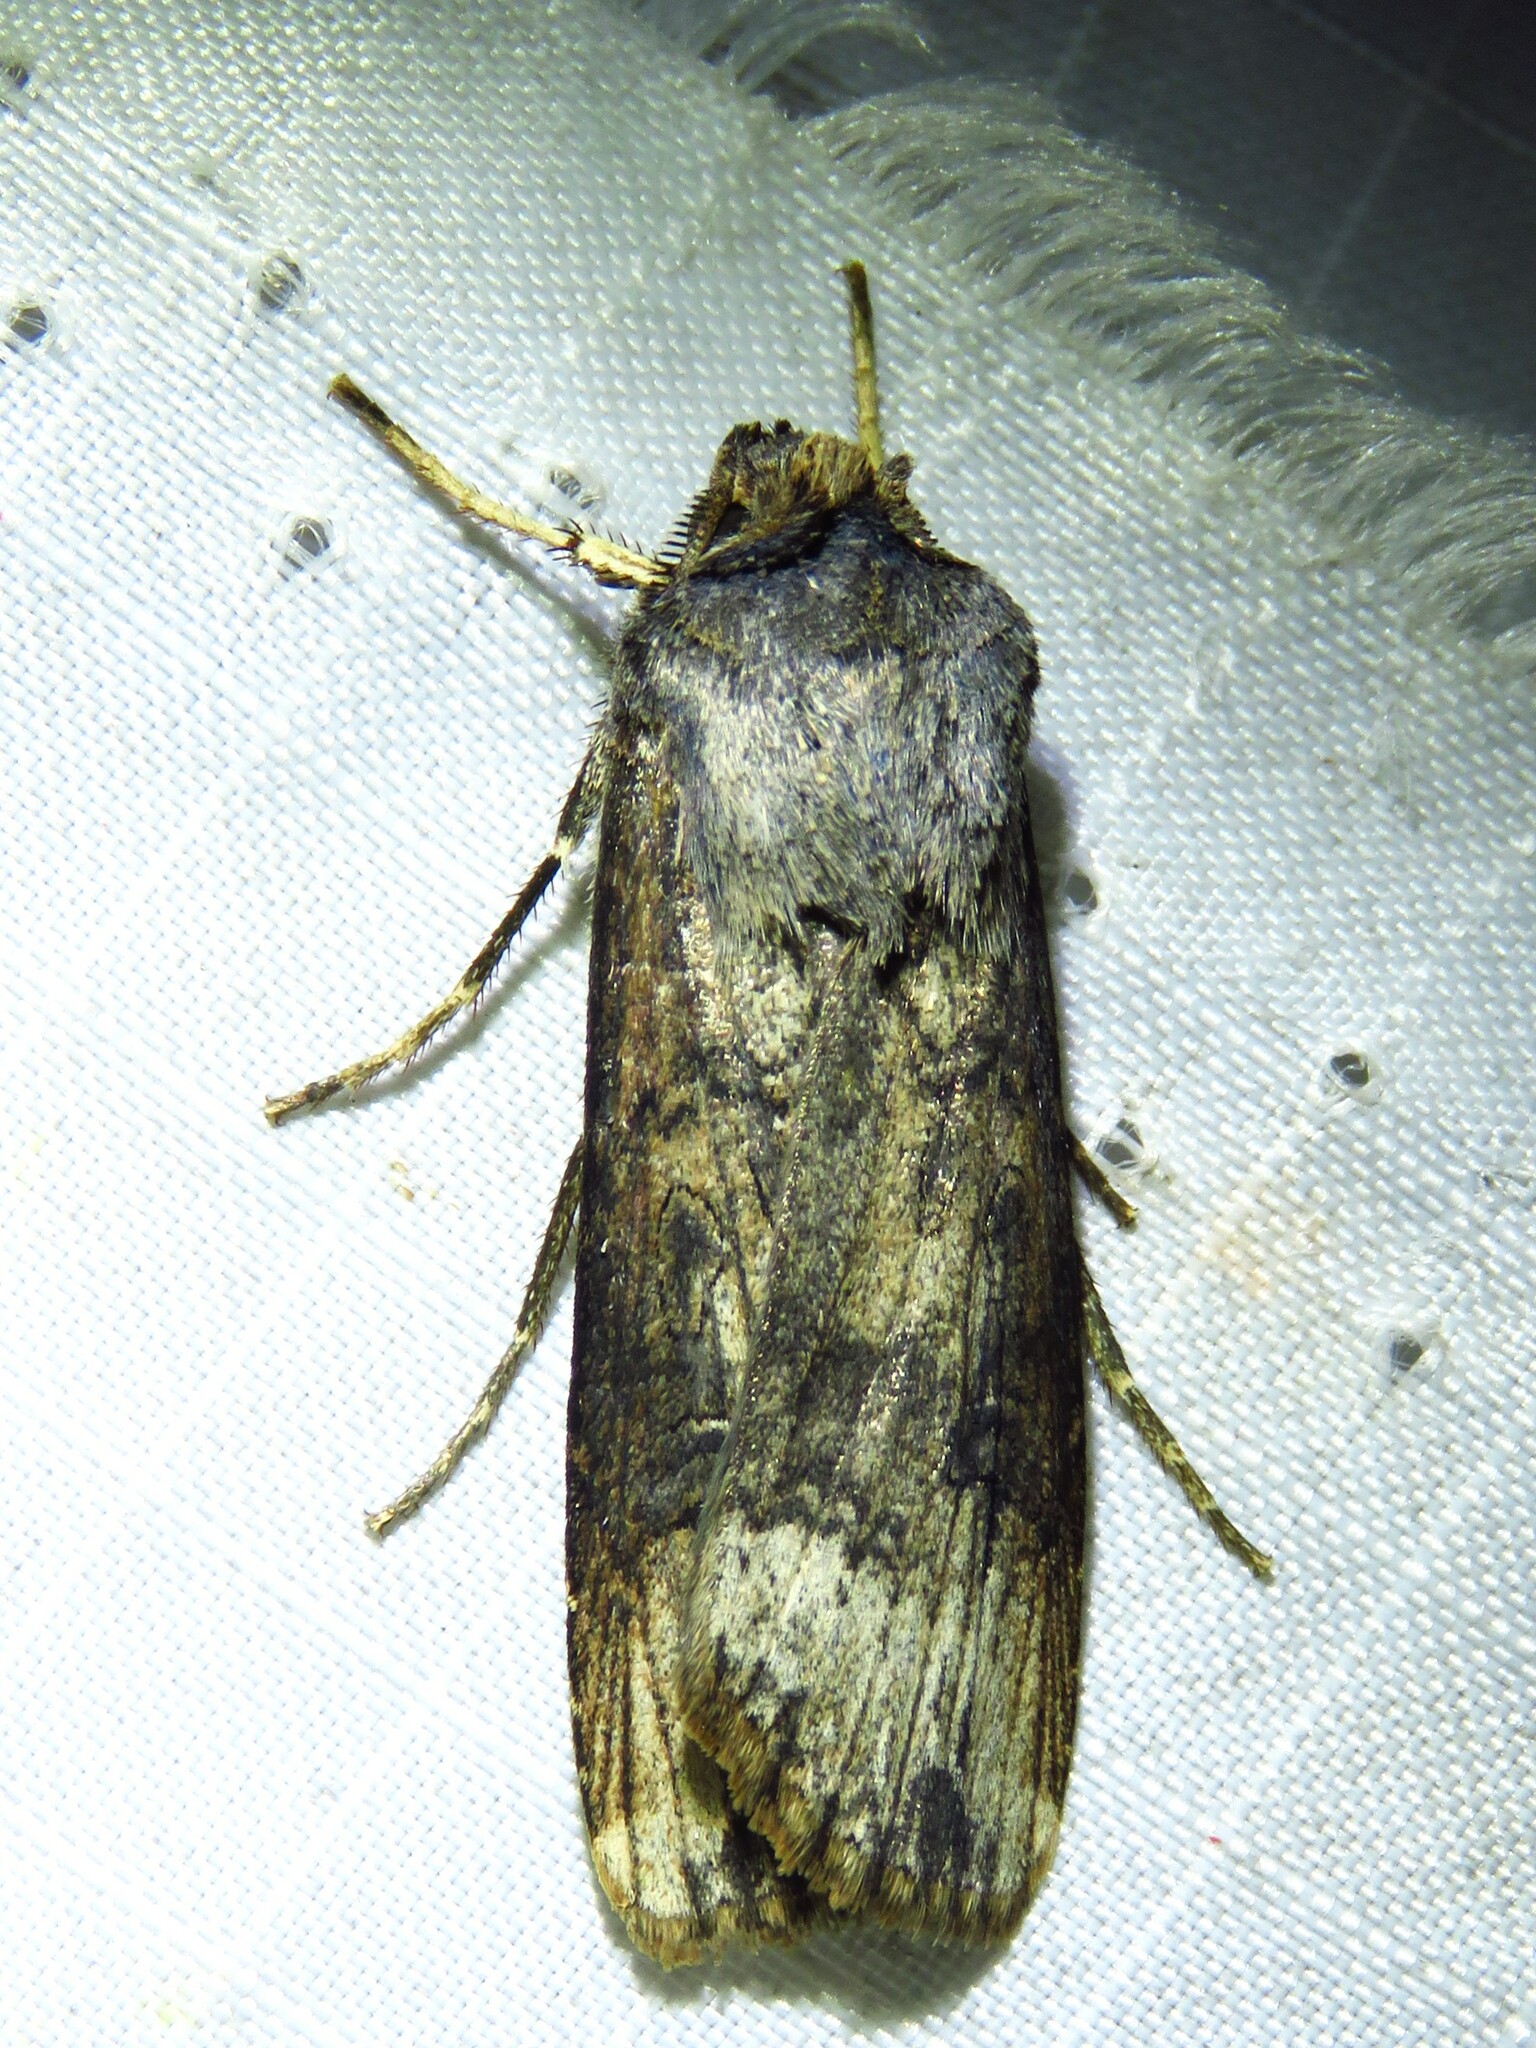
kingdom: Animalia
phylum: Arthropoda
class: Insecta
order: Lepidoptera
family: Noctuidae
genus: Agrotis
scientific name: Agrotis ipsilon
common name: Dark sword-grass
